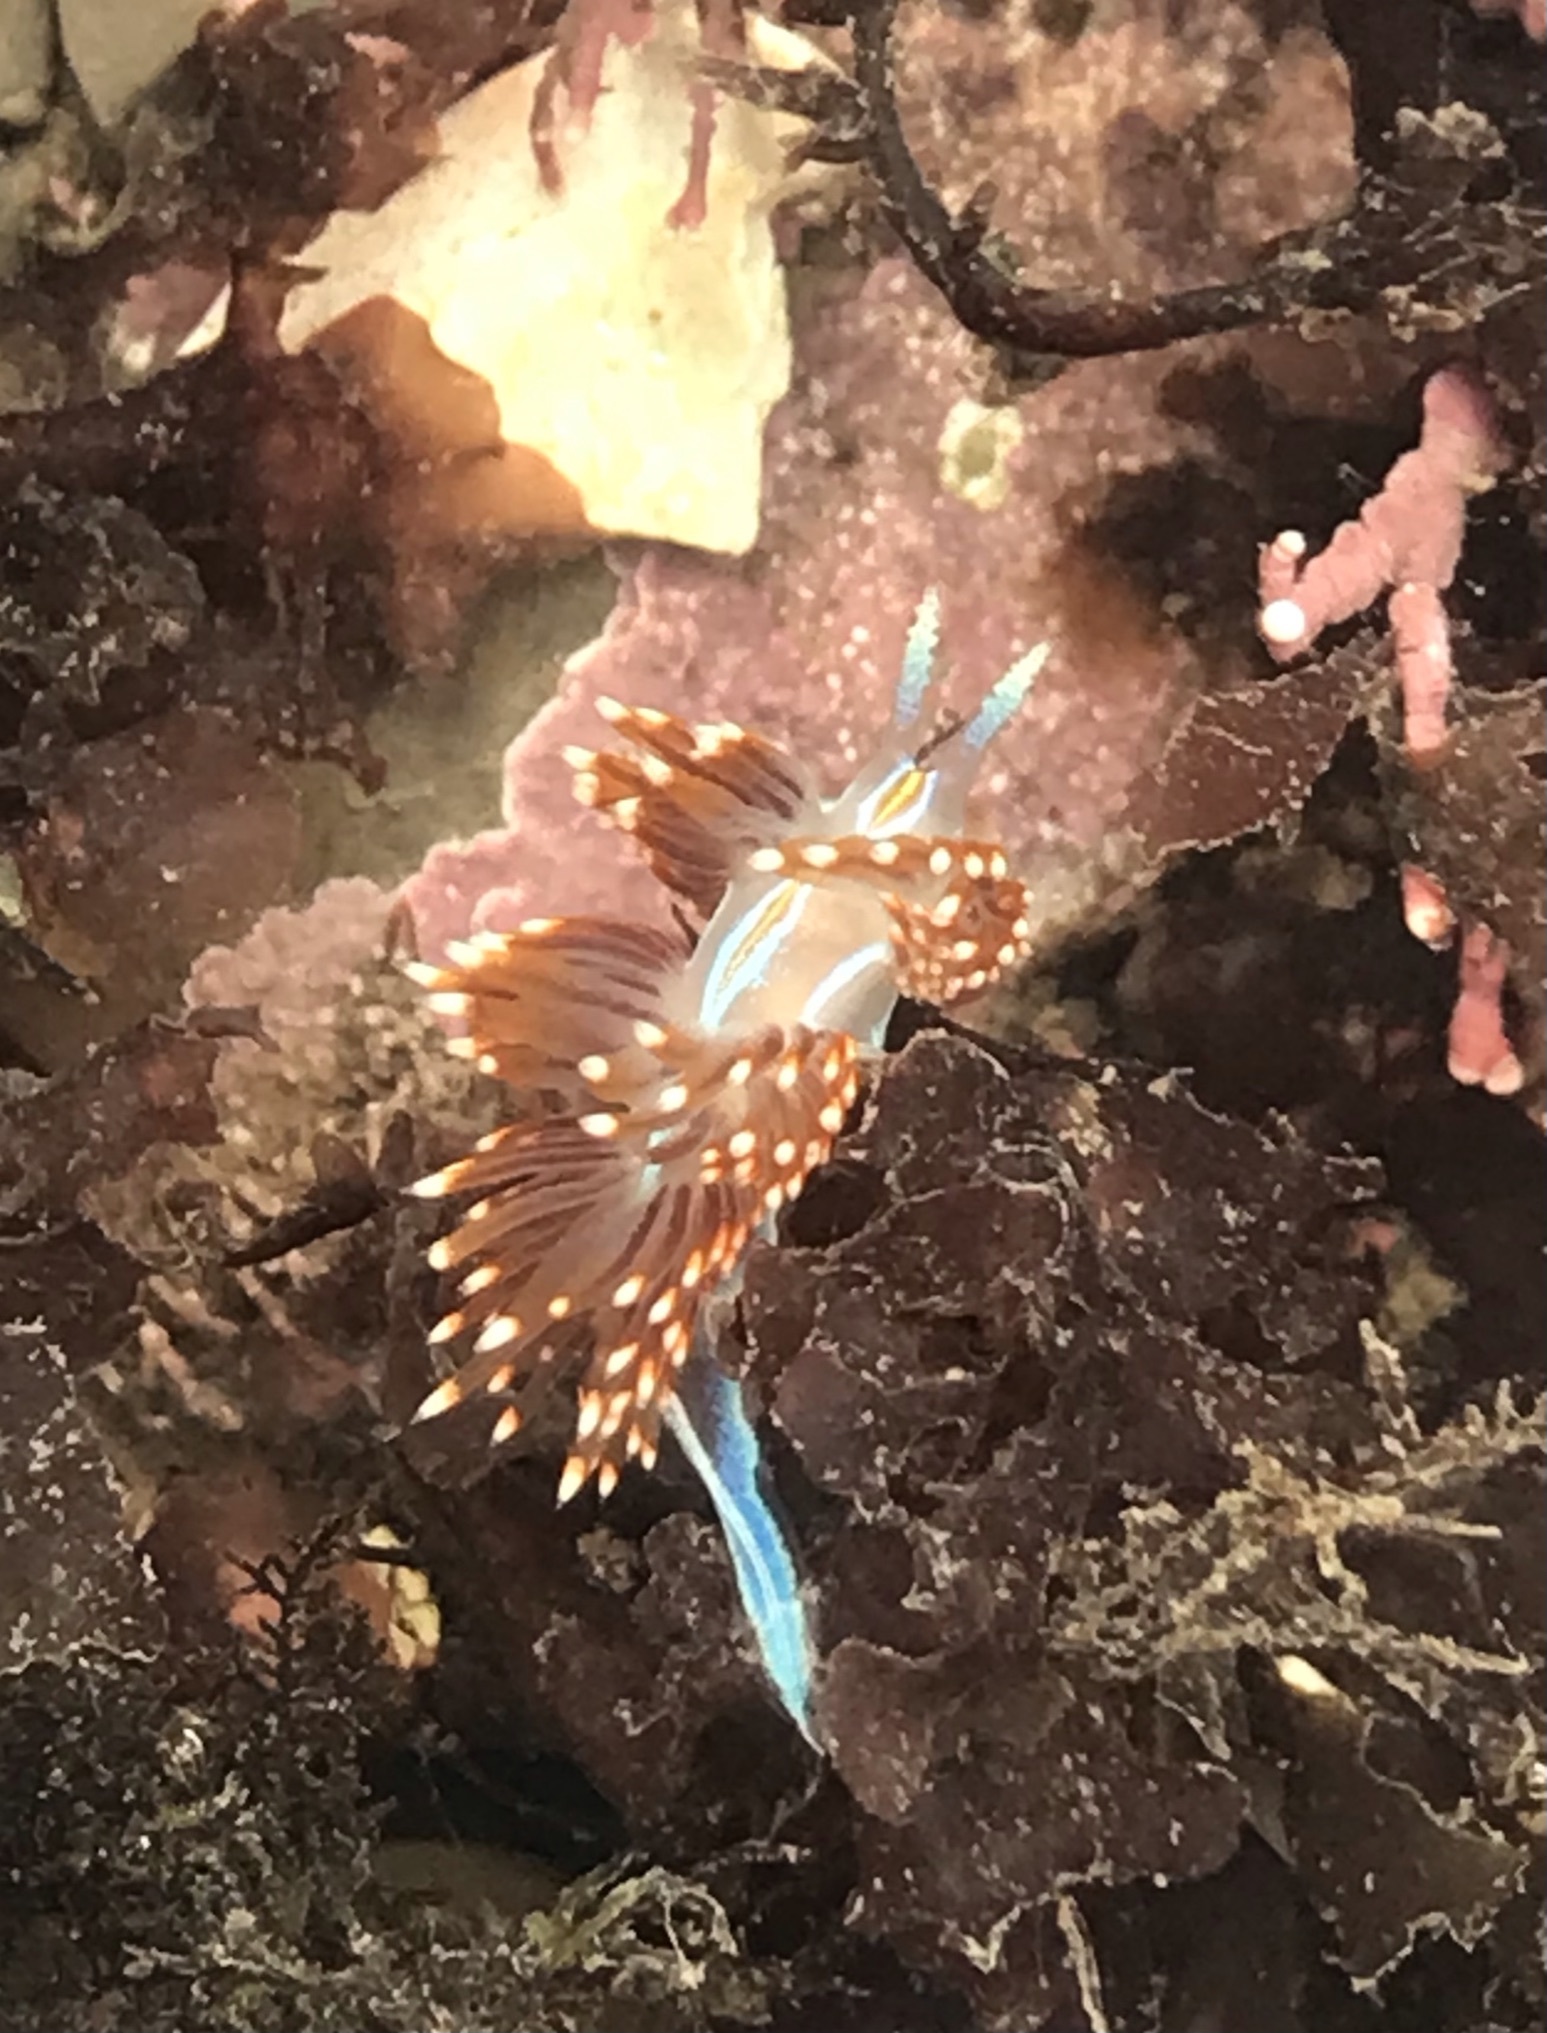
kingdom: Animalia
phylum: Mollusca
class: Gastropoda
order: Nudibranchia
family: Myrrhinidae
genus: Hermissenda
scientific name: Hermissenda opalescens
